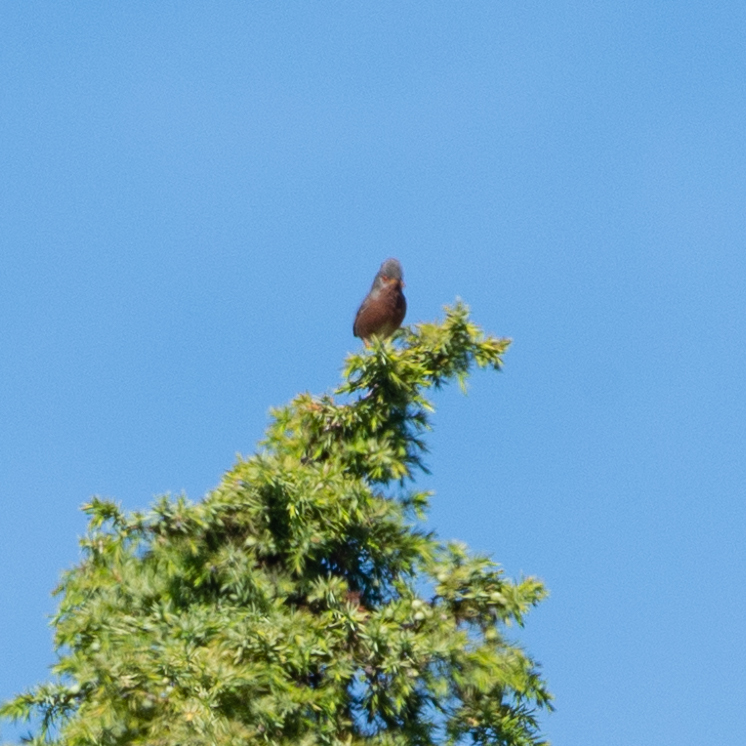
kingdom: Animalia
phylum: Chordata
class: Aves
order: Passeriformes
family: Sylviidae
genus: Sylvia
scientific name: Sylvia undata
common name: Dartford warbler
